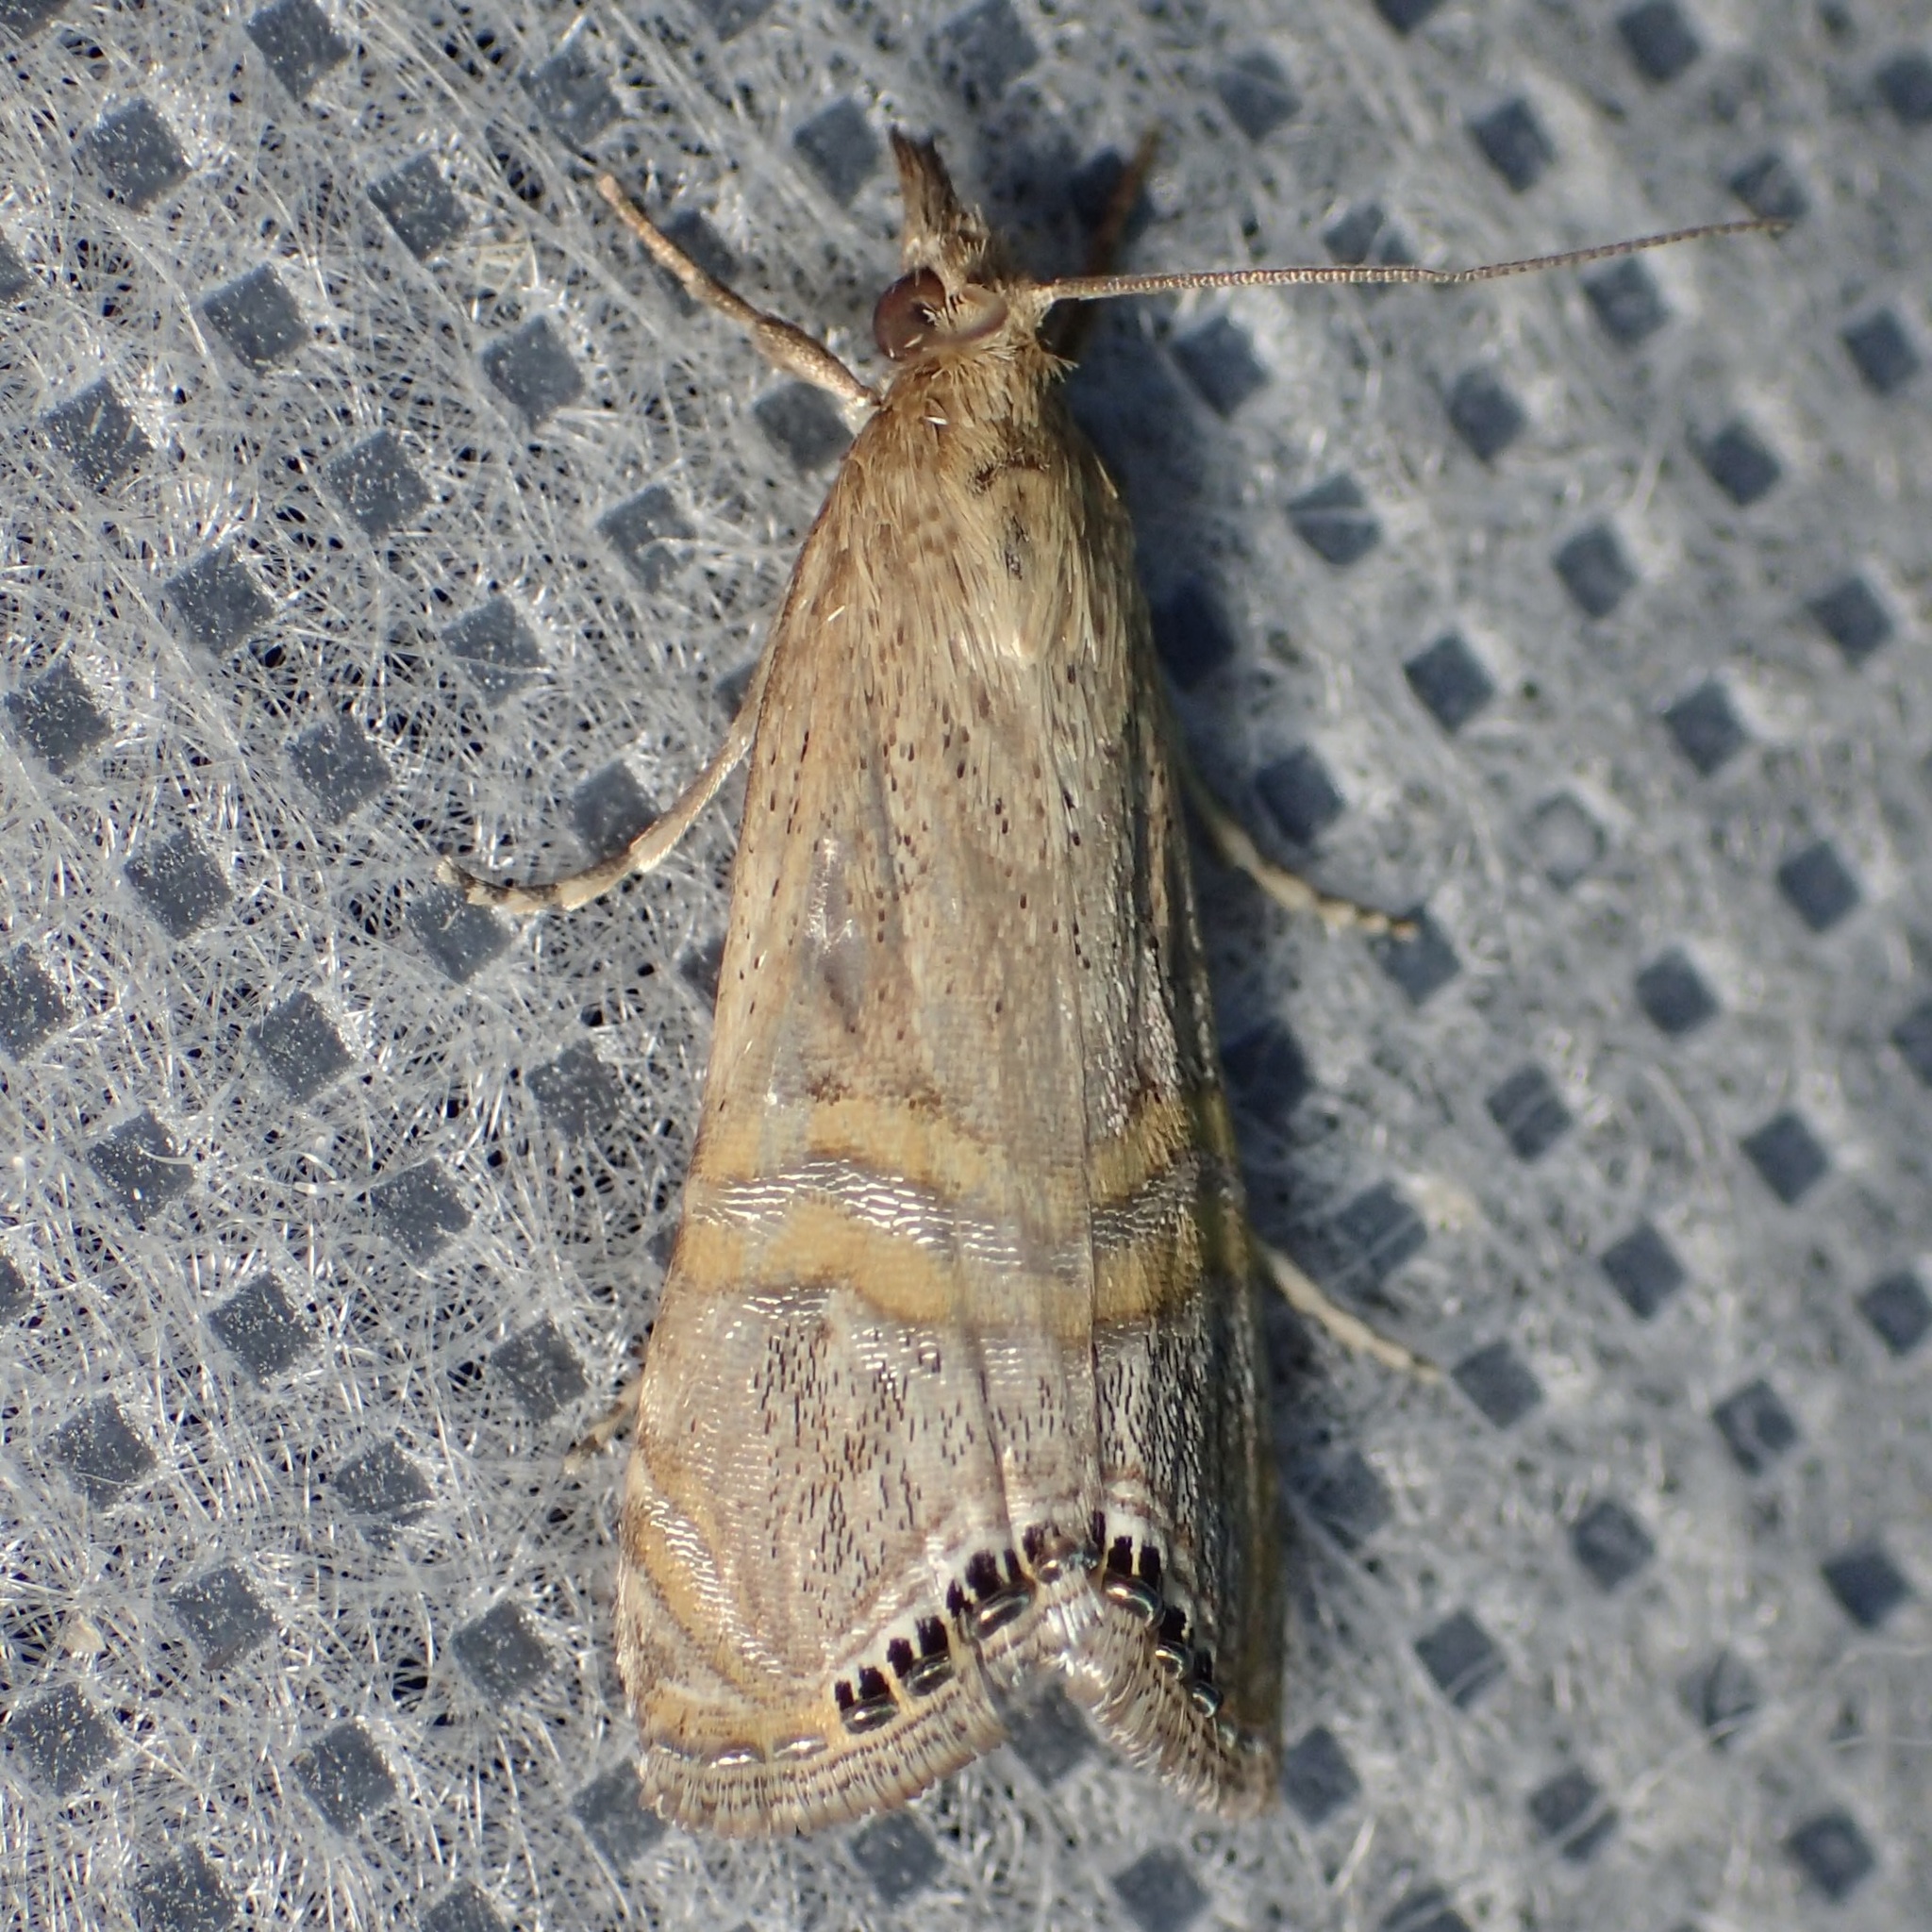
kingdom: Animalia
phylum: Arthropoda
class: Insecta
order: Lepidoptera
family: Crambidae
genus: Euchromius
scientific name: Euchromius ocellea
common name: Necklace veneer moth
